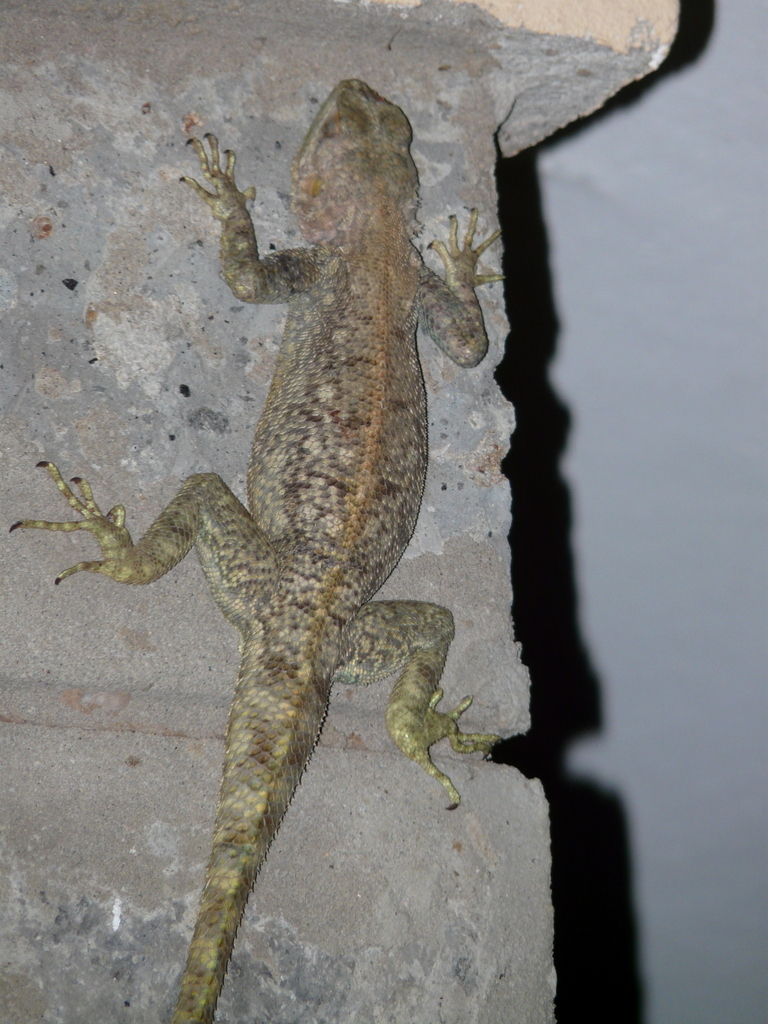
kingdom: Animalia
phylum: Chordata
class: Squamata
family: Agamidae
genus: Agama
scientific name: Agama lionotus
